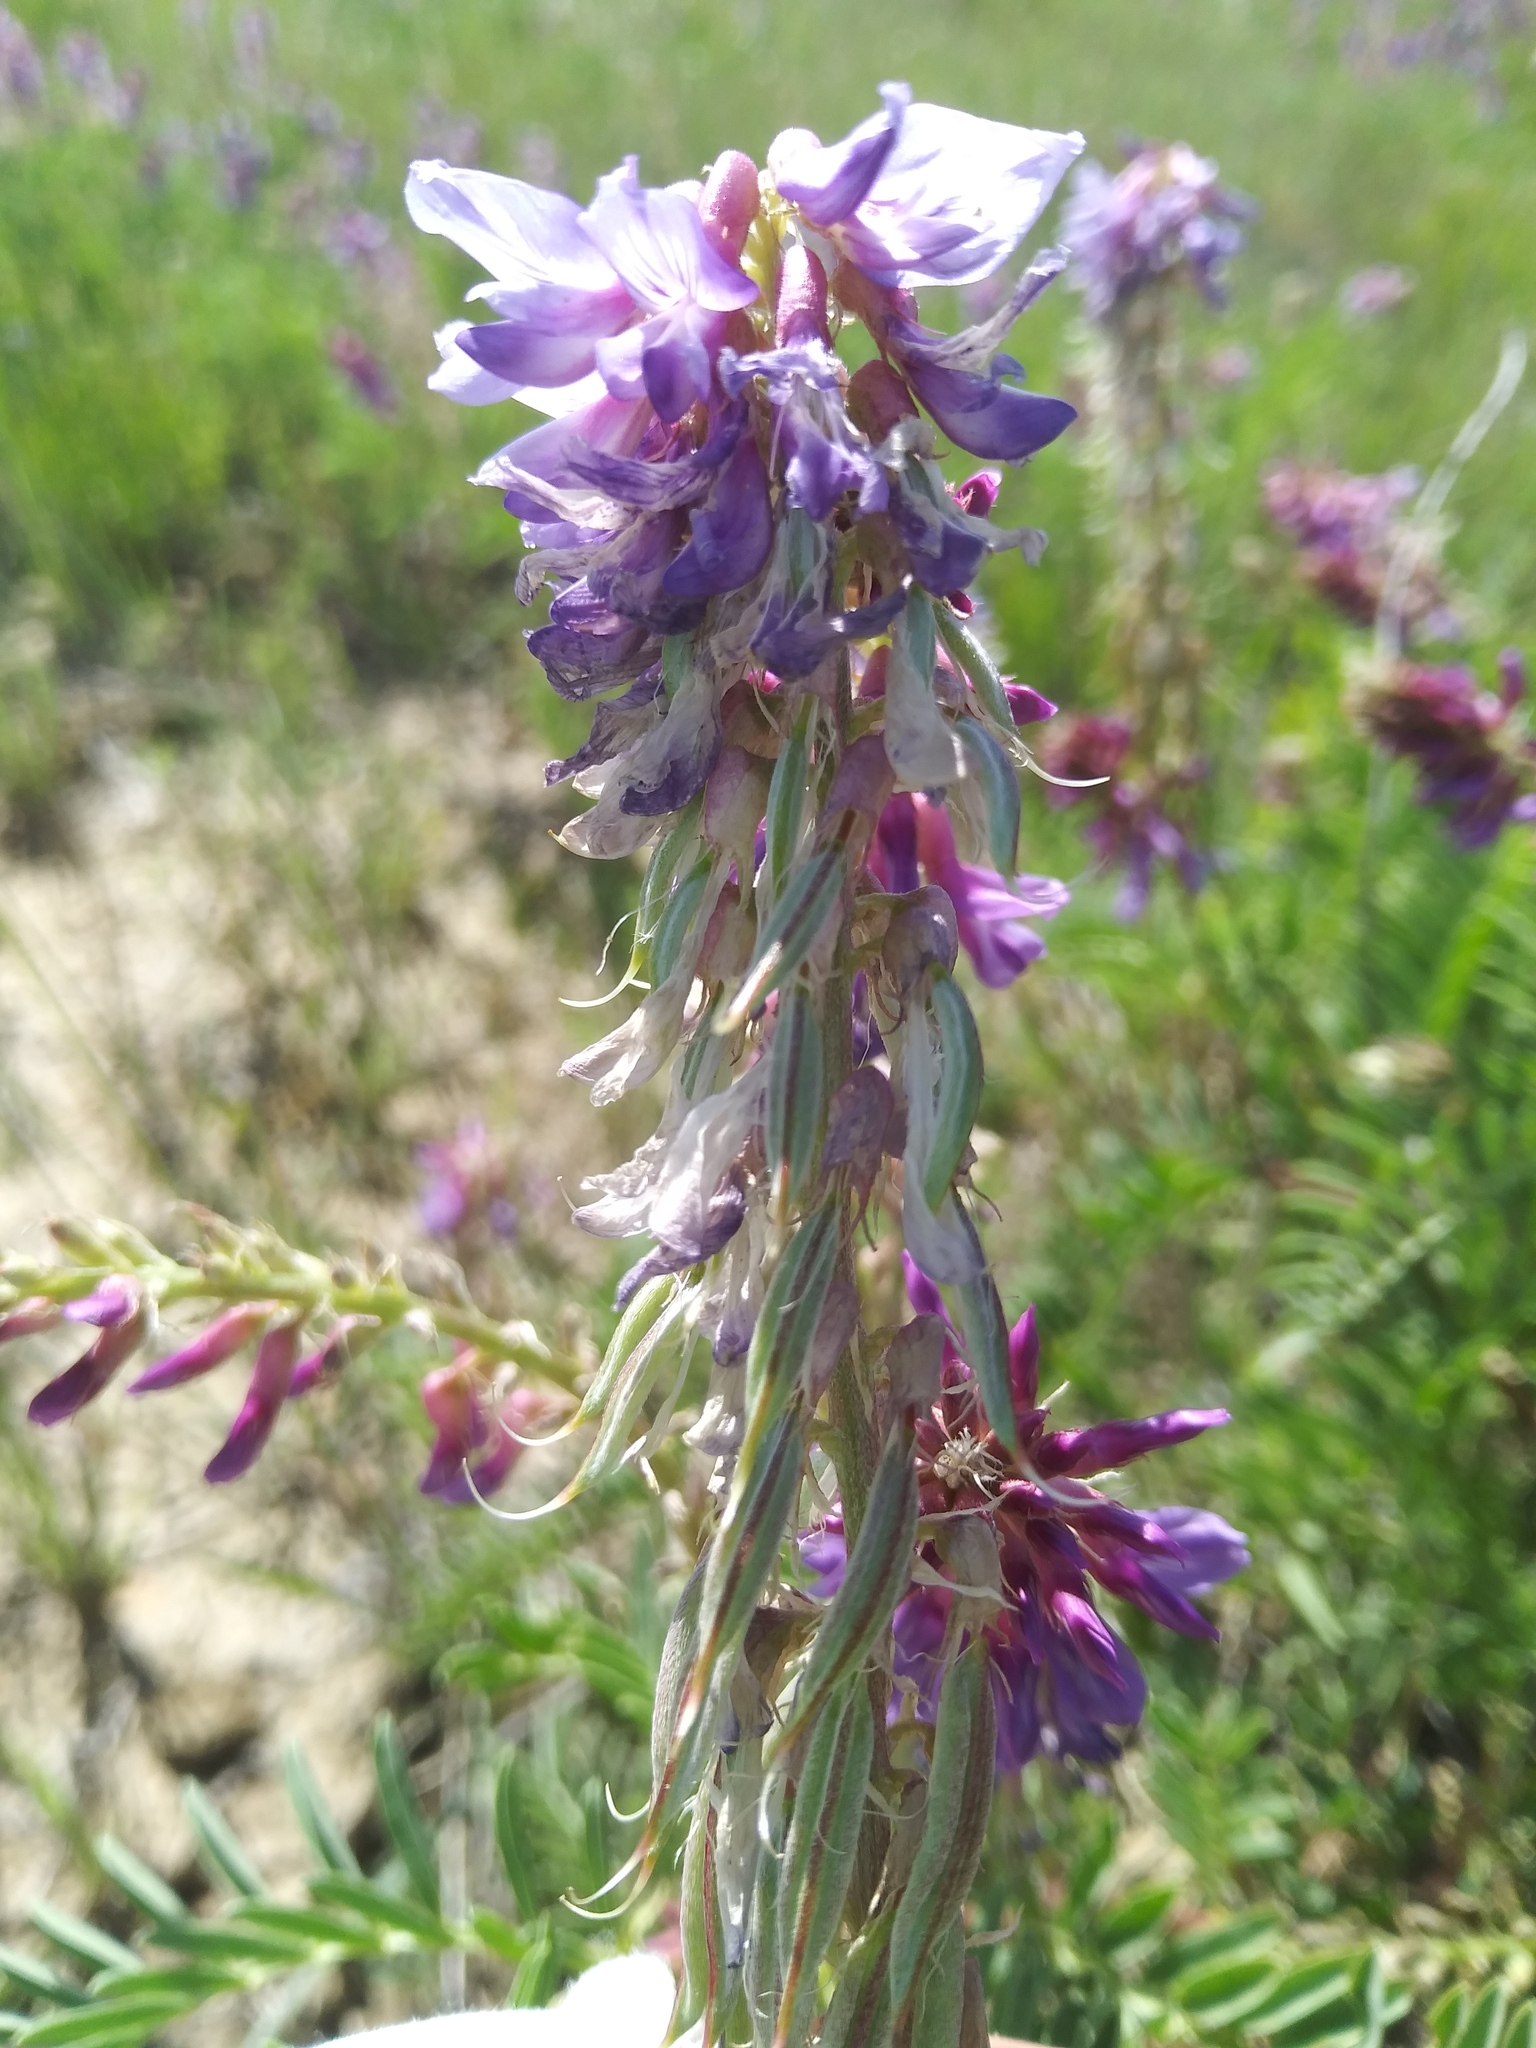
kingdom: Plantae
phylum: Tracheophyta
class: Magnoliopsida
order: Fabales
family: Fabaceae
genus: Astragalus
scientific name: Astragalus bisulcatus
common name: Two-groove milk-vetch
